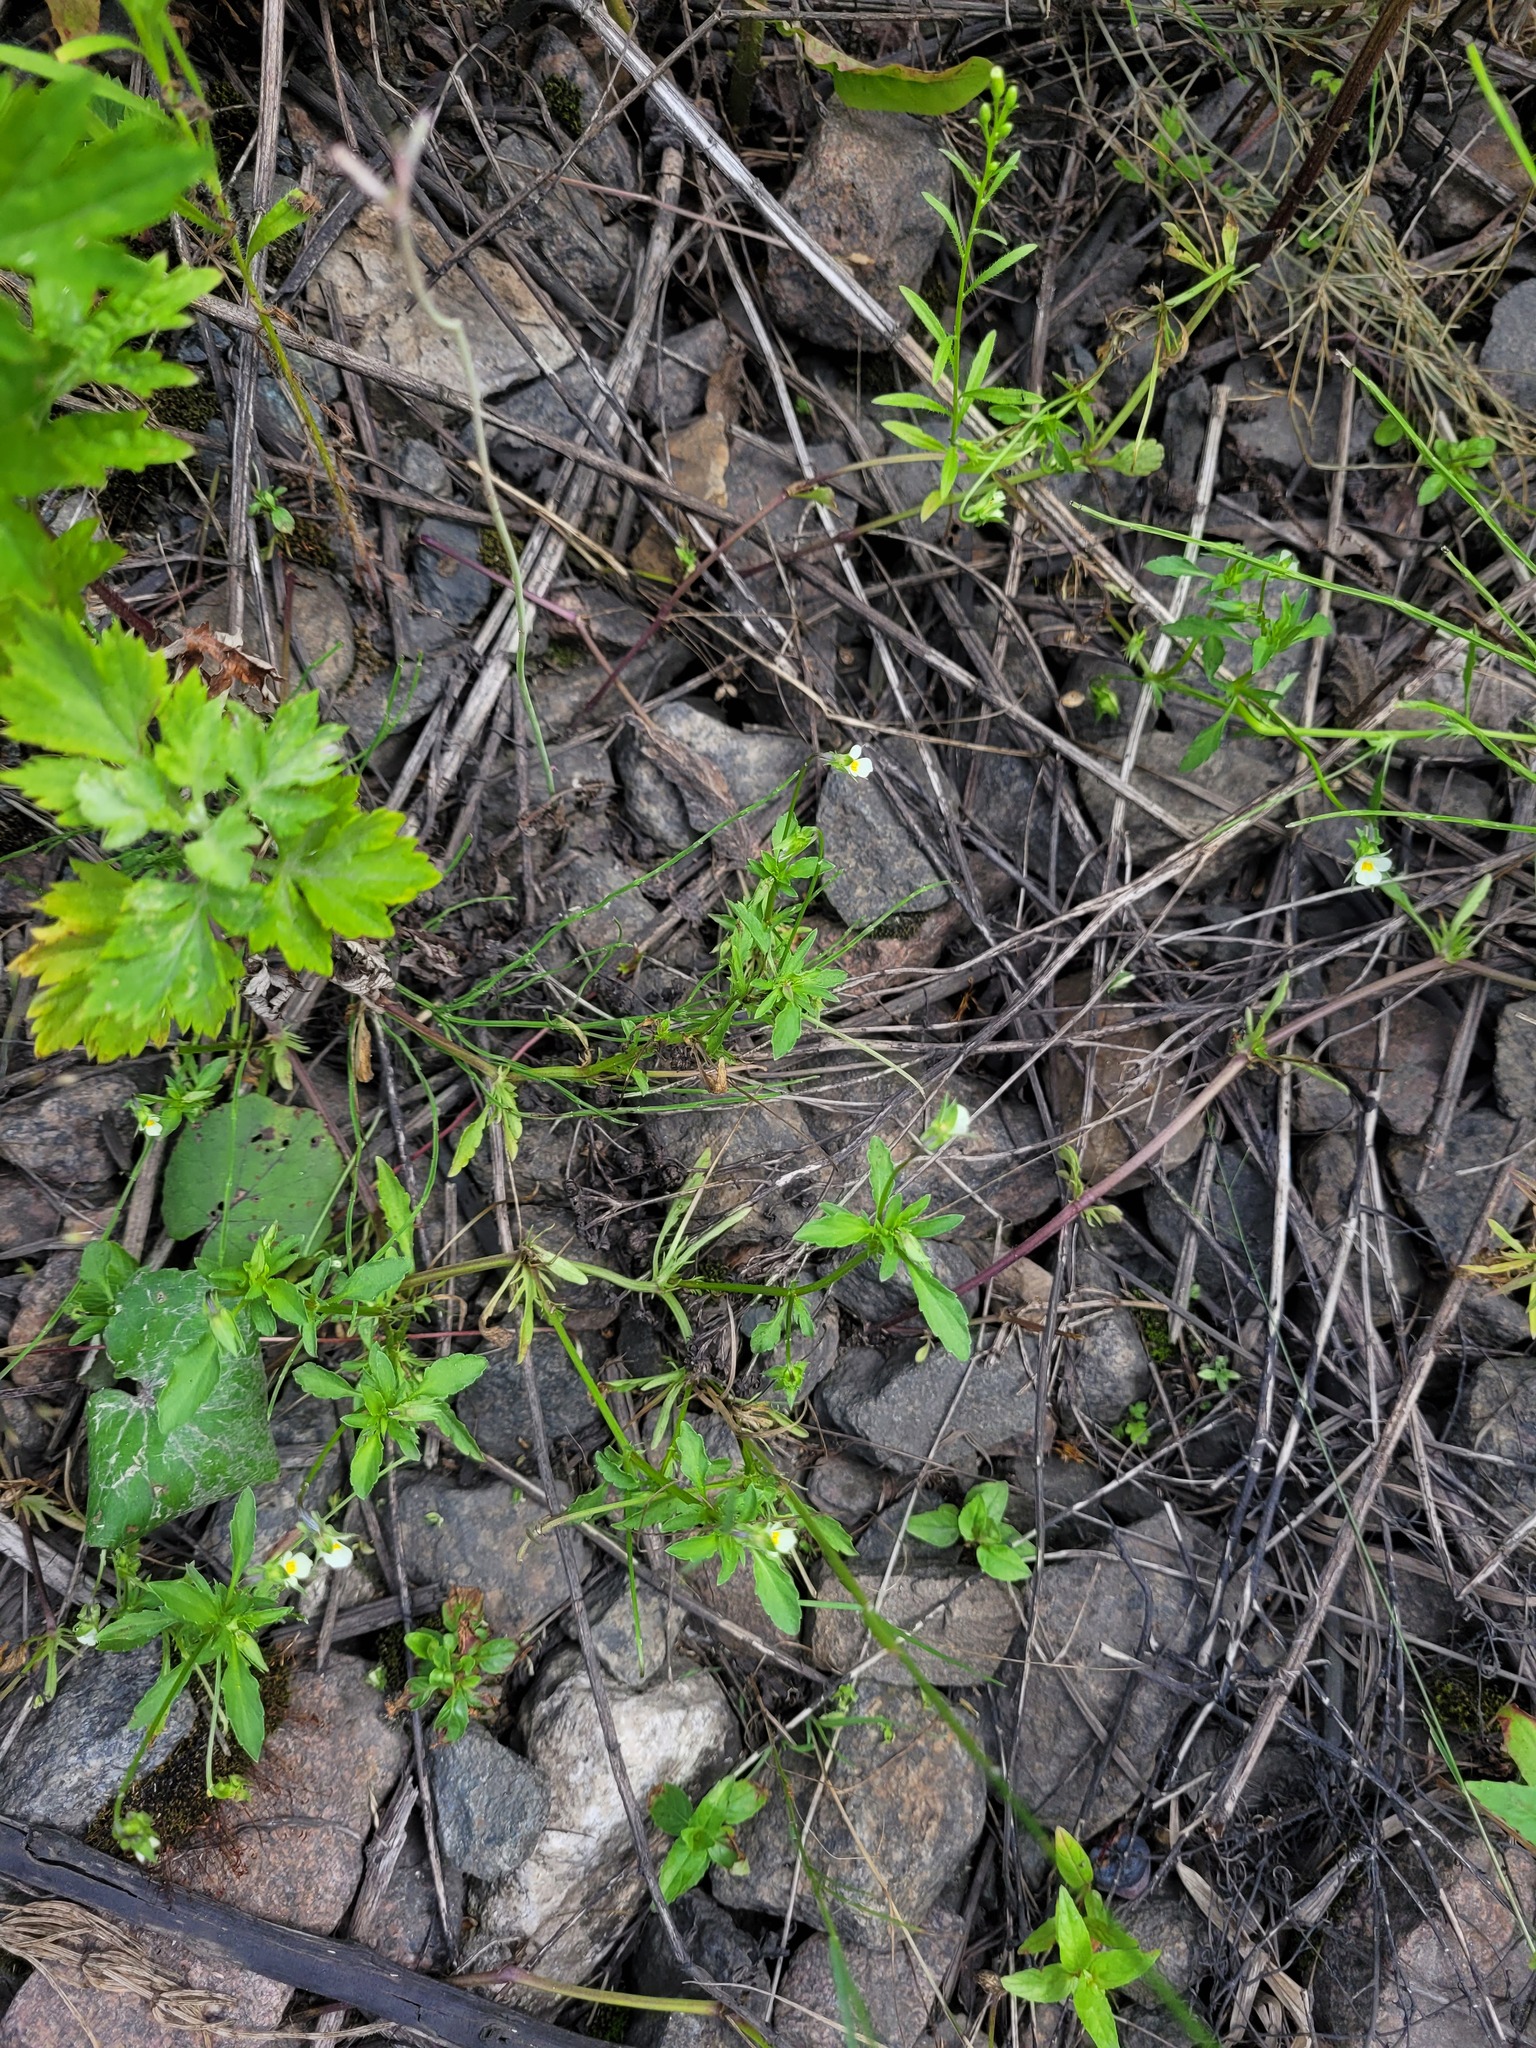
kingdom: Plantae
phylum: Tracheophyta
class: Magnoliopsida
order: Malpighiales
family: Violaceae
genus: Viola
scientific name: Viola arvensis
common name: Field pansy
